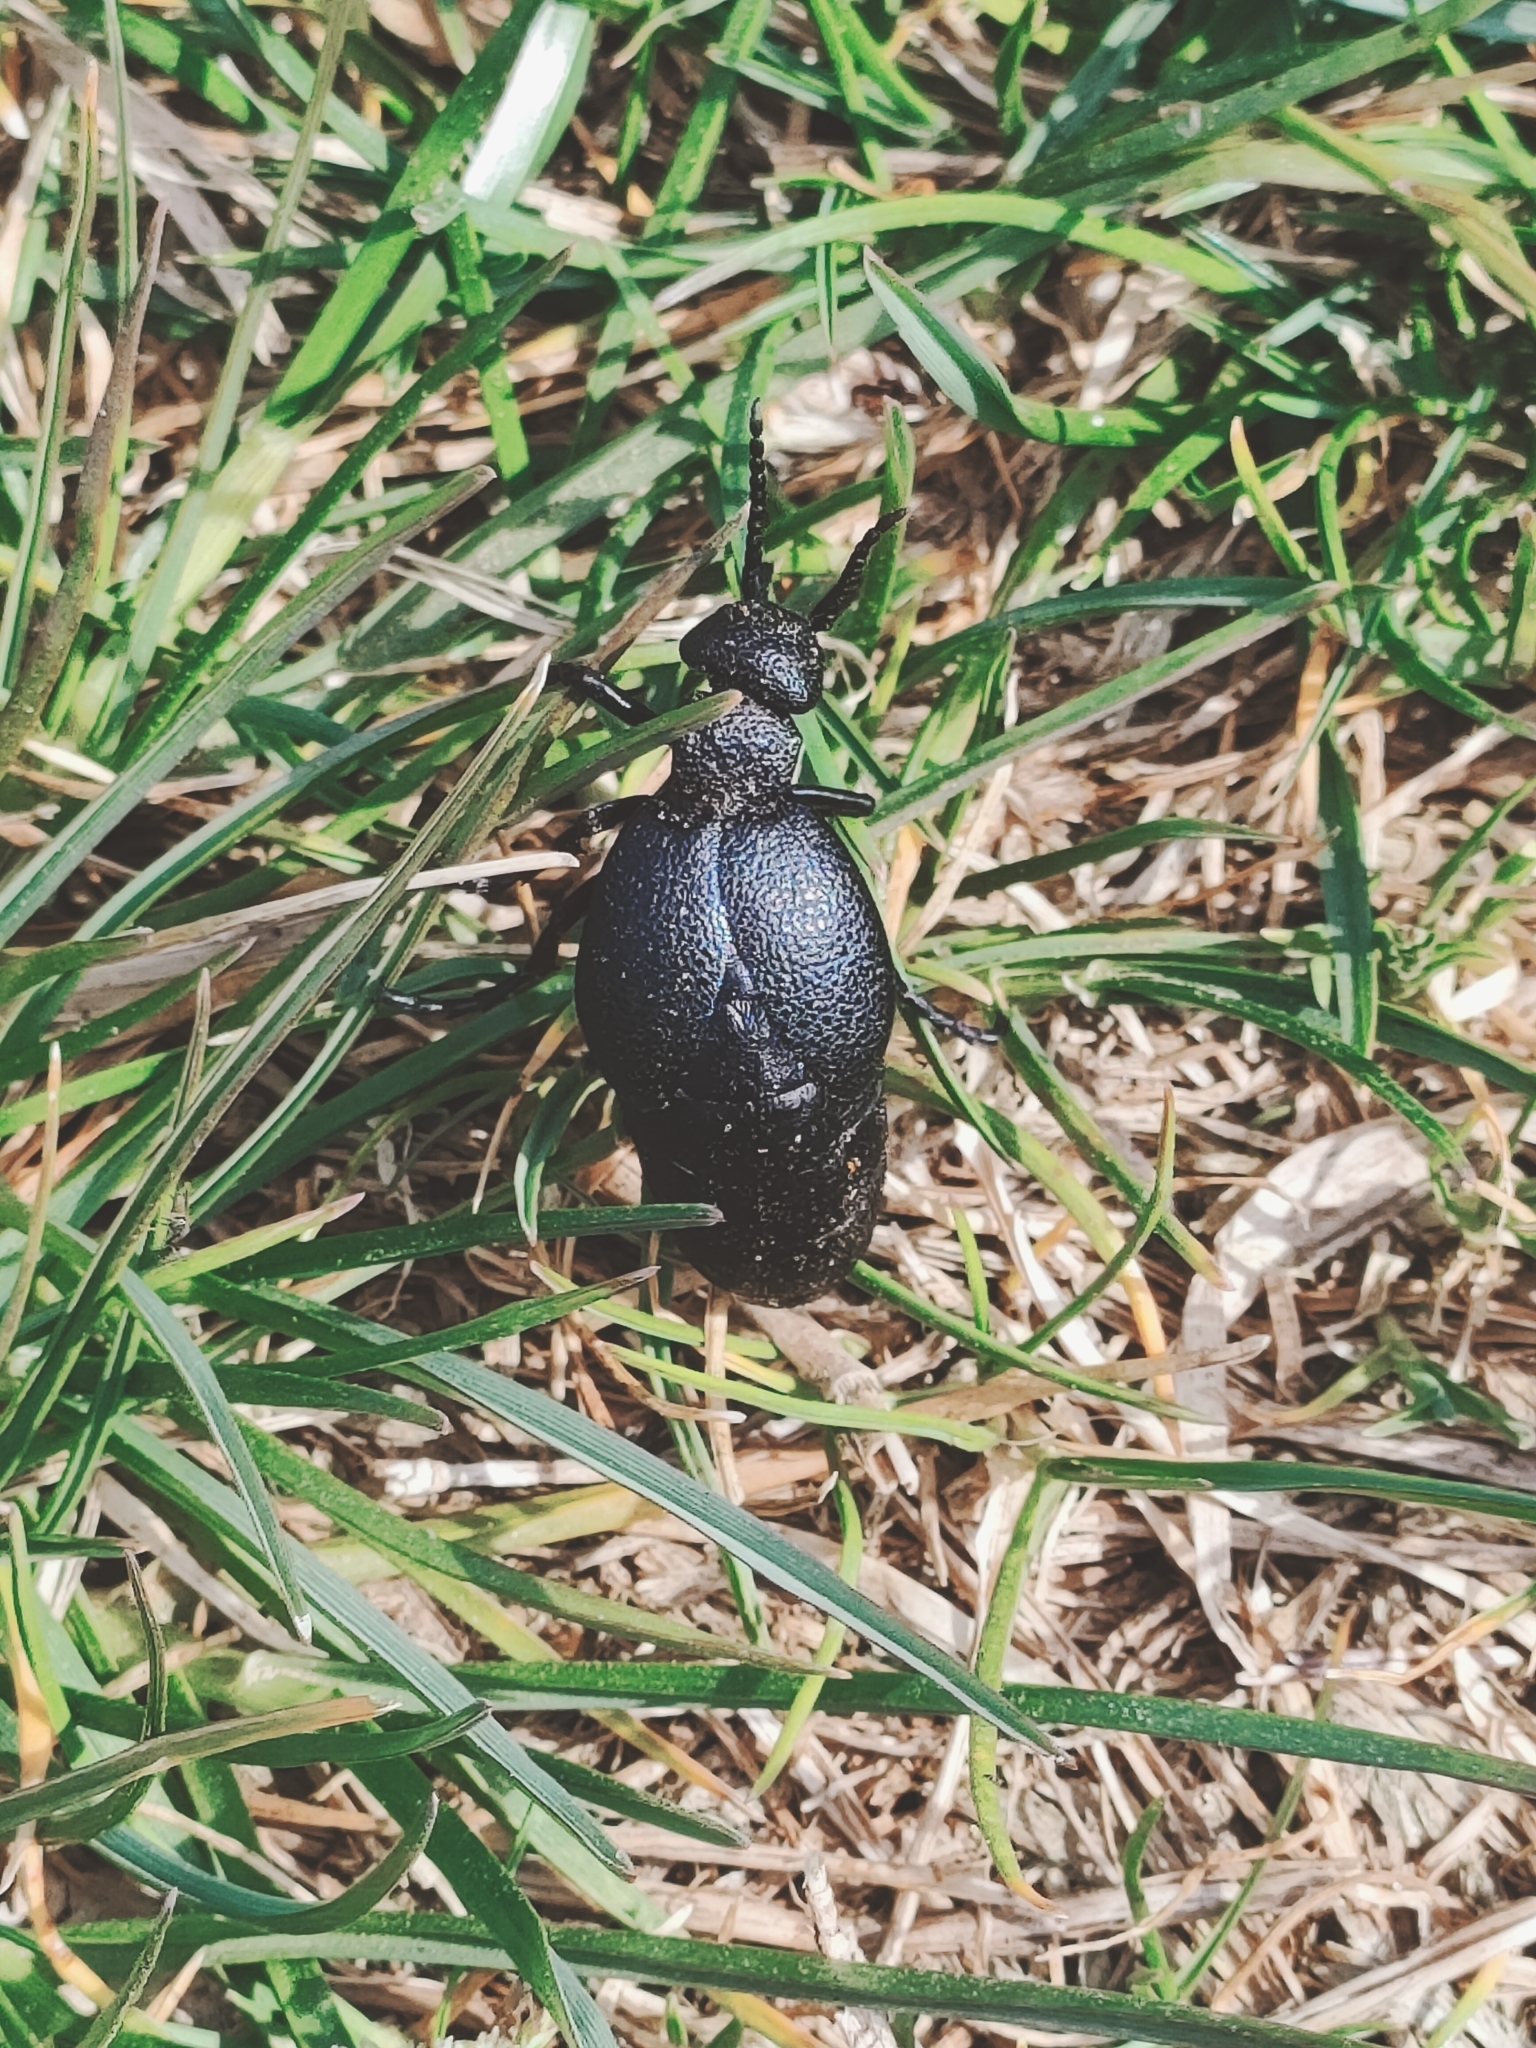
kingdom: Animalia
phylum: Arthropoda
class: Insecta
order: Coleoptera
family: Meloidae
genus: Meloe
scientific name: Meloe cicatricosus
